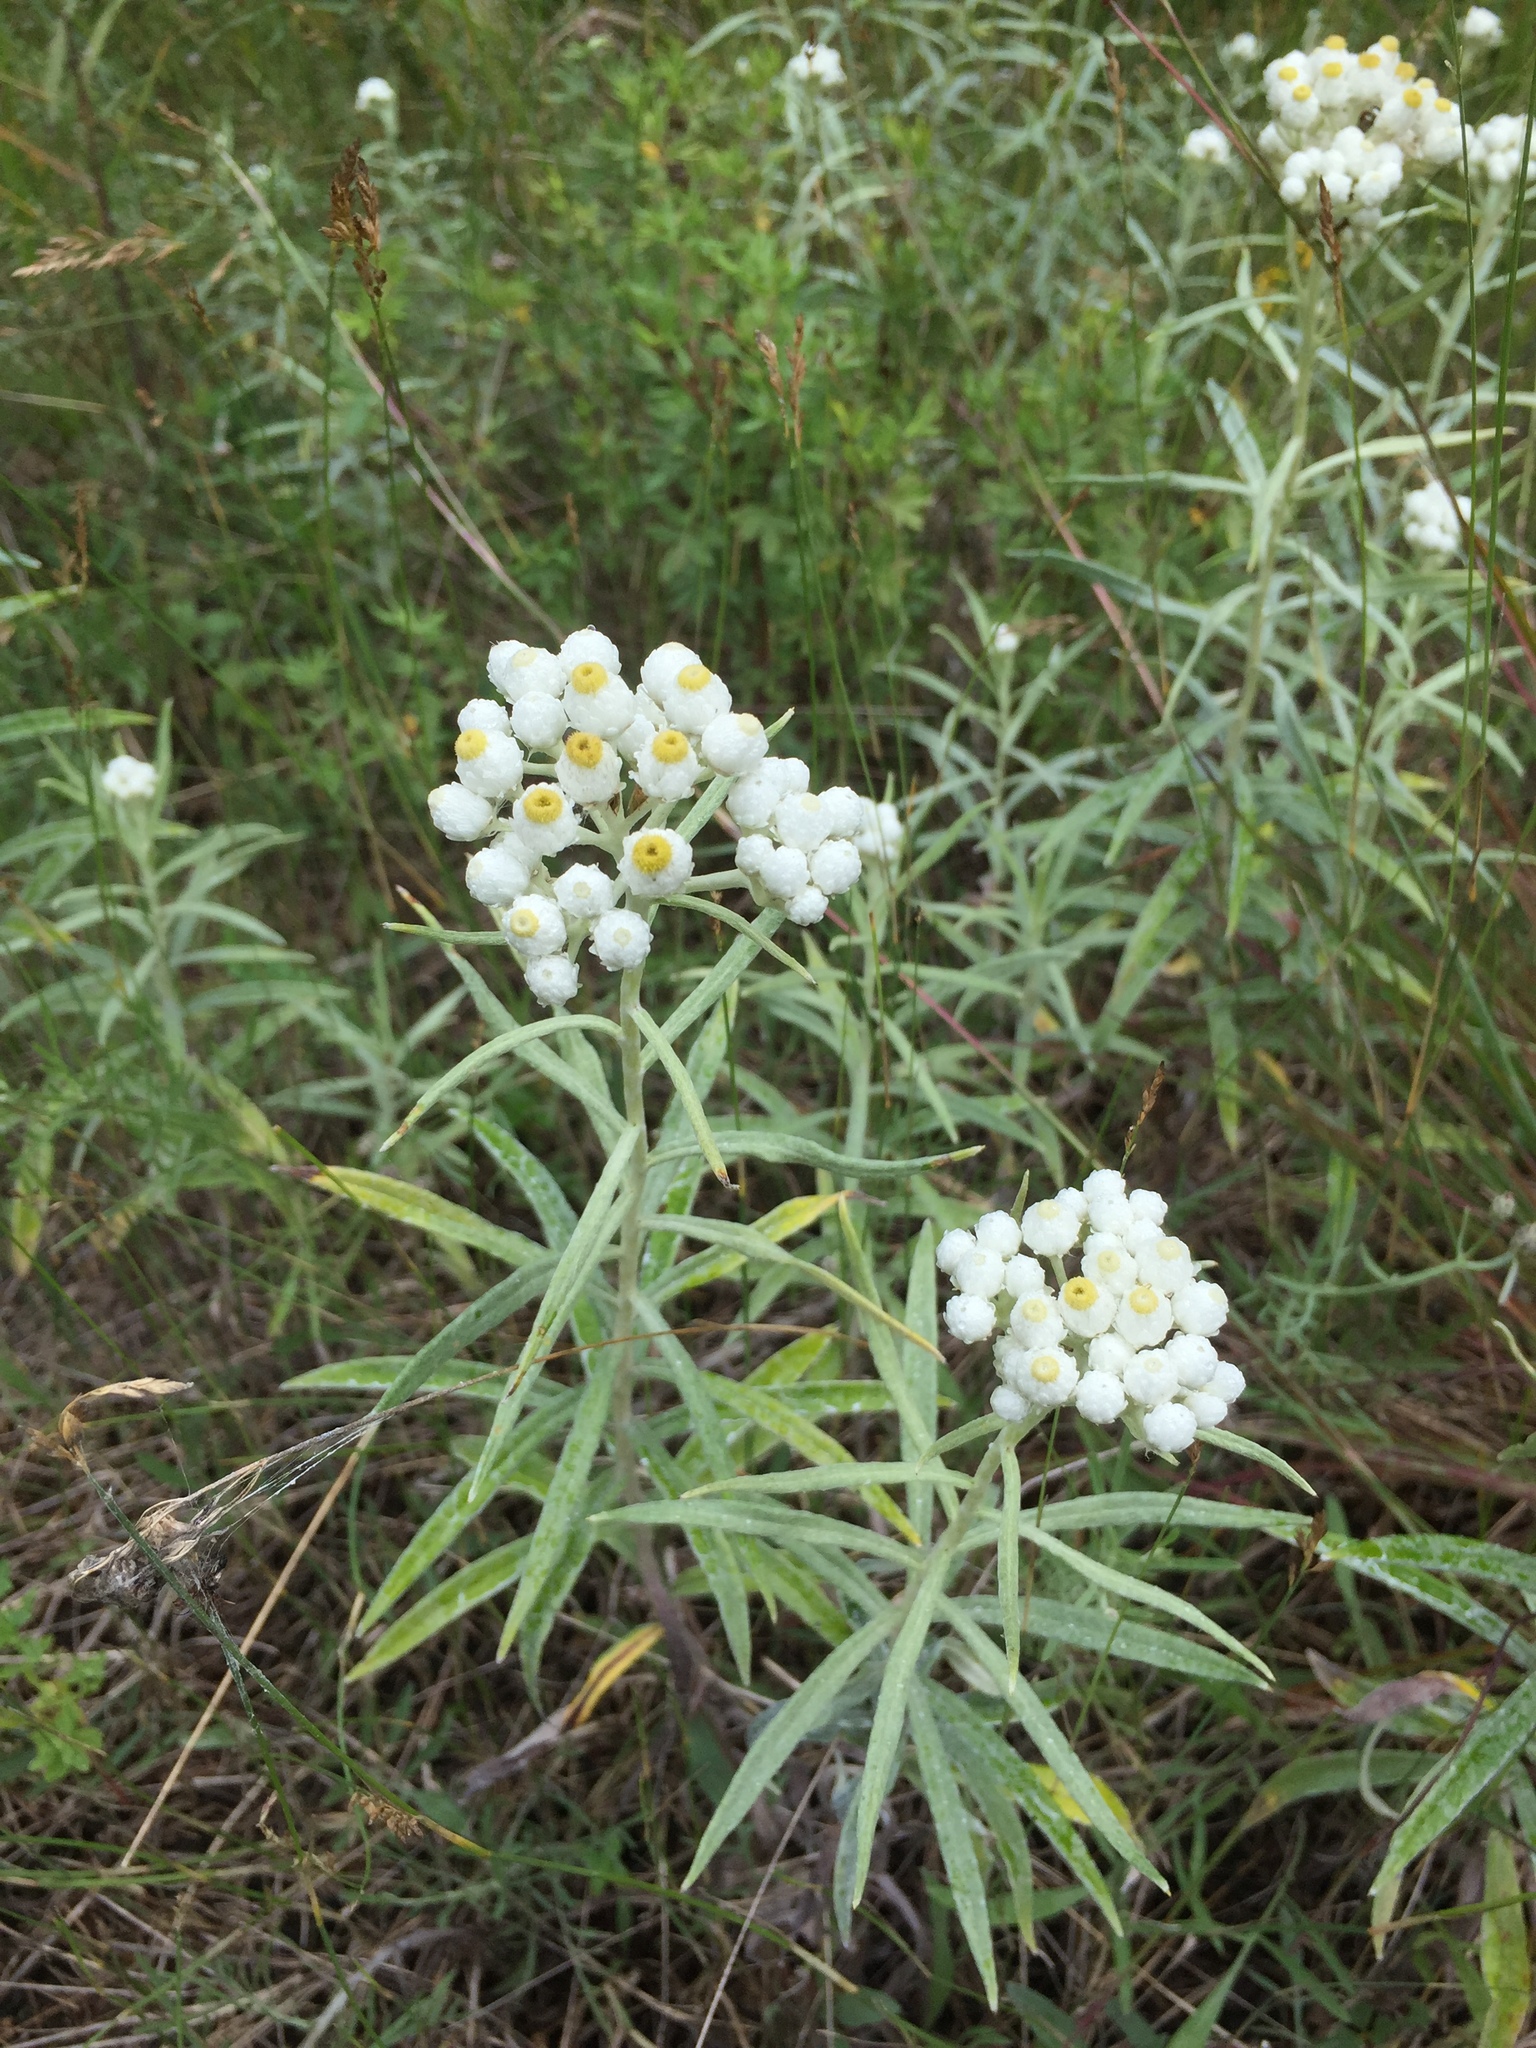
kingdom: Plantae
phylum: Tracheophyta
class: Magnoliopsida
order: Asterales
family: Asteraceae
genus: Anaphalis
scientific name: Anaphalis margaritacea
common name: Pearly everlasting
